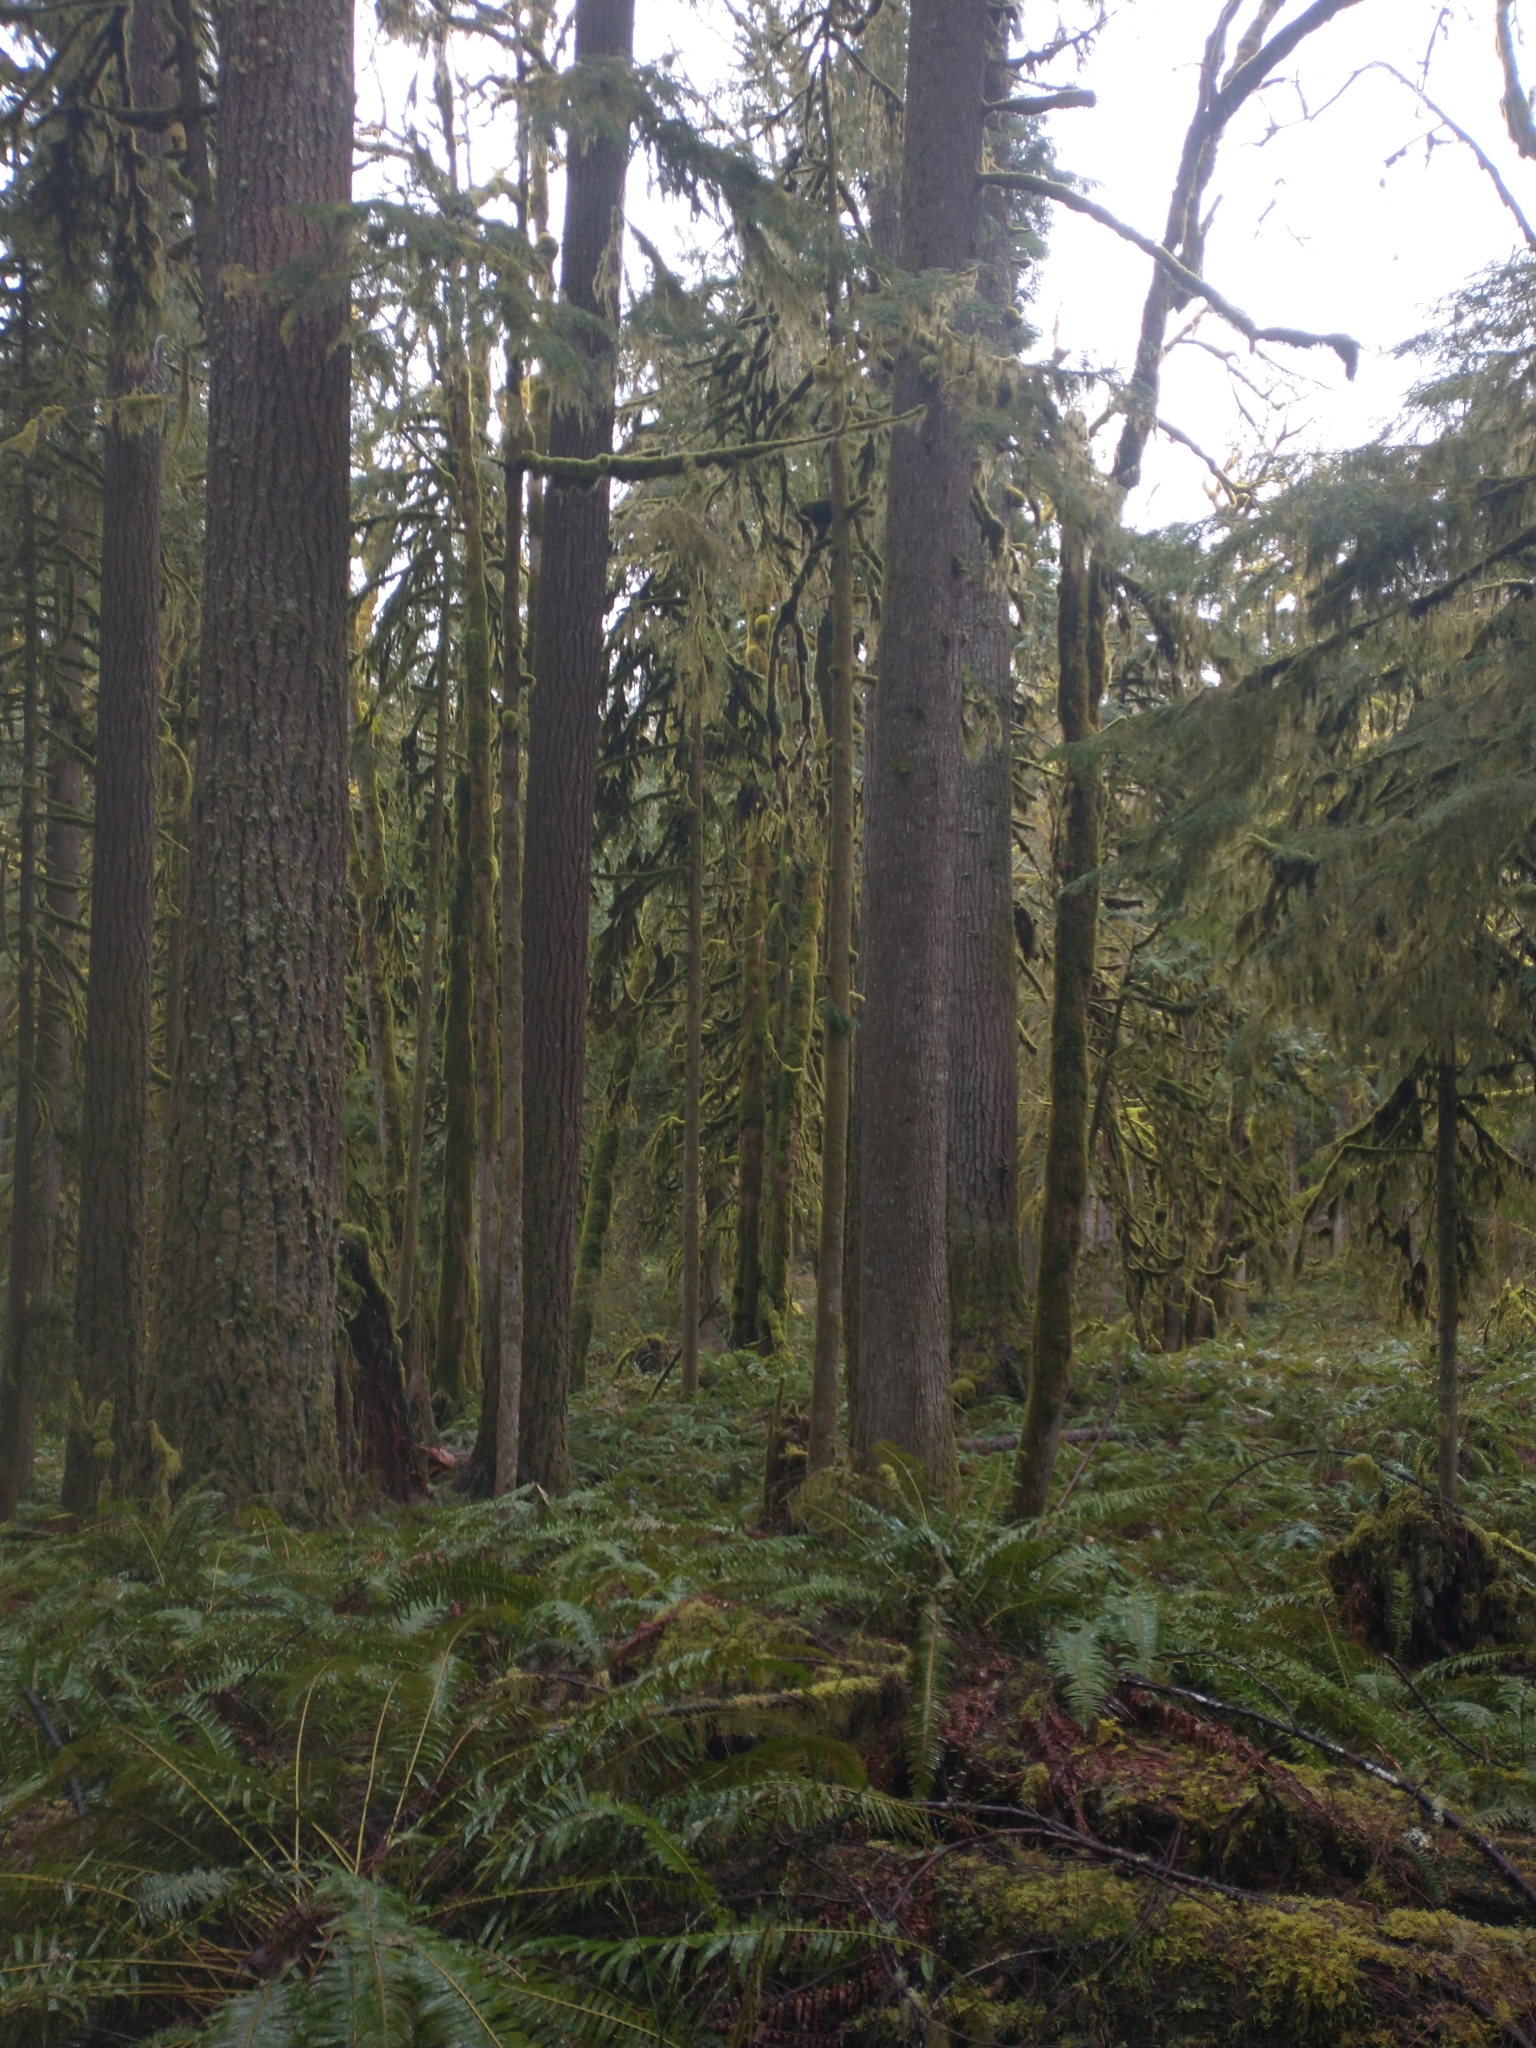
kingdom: Plantae
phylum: Tracheophyta
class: Pinopsida
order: Pinales
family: Pinaceae
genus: Pseudotsuga
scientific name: Pseudotsuga menziesii
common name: Douglas fir
